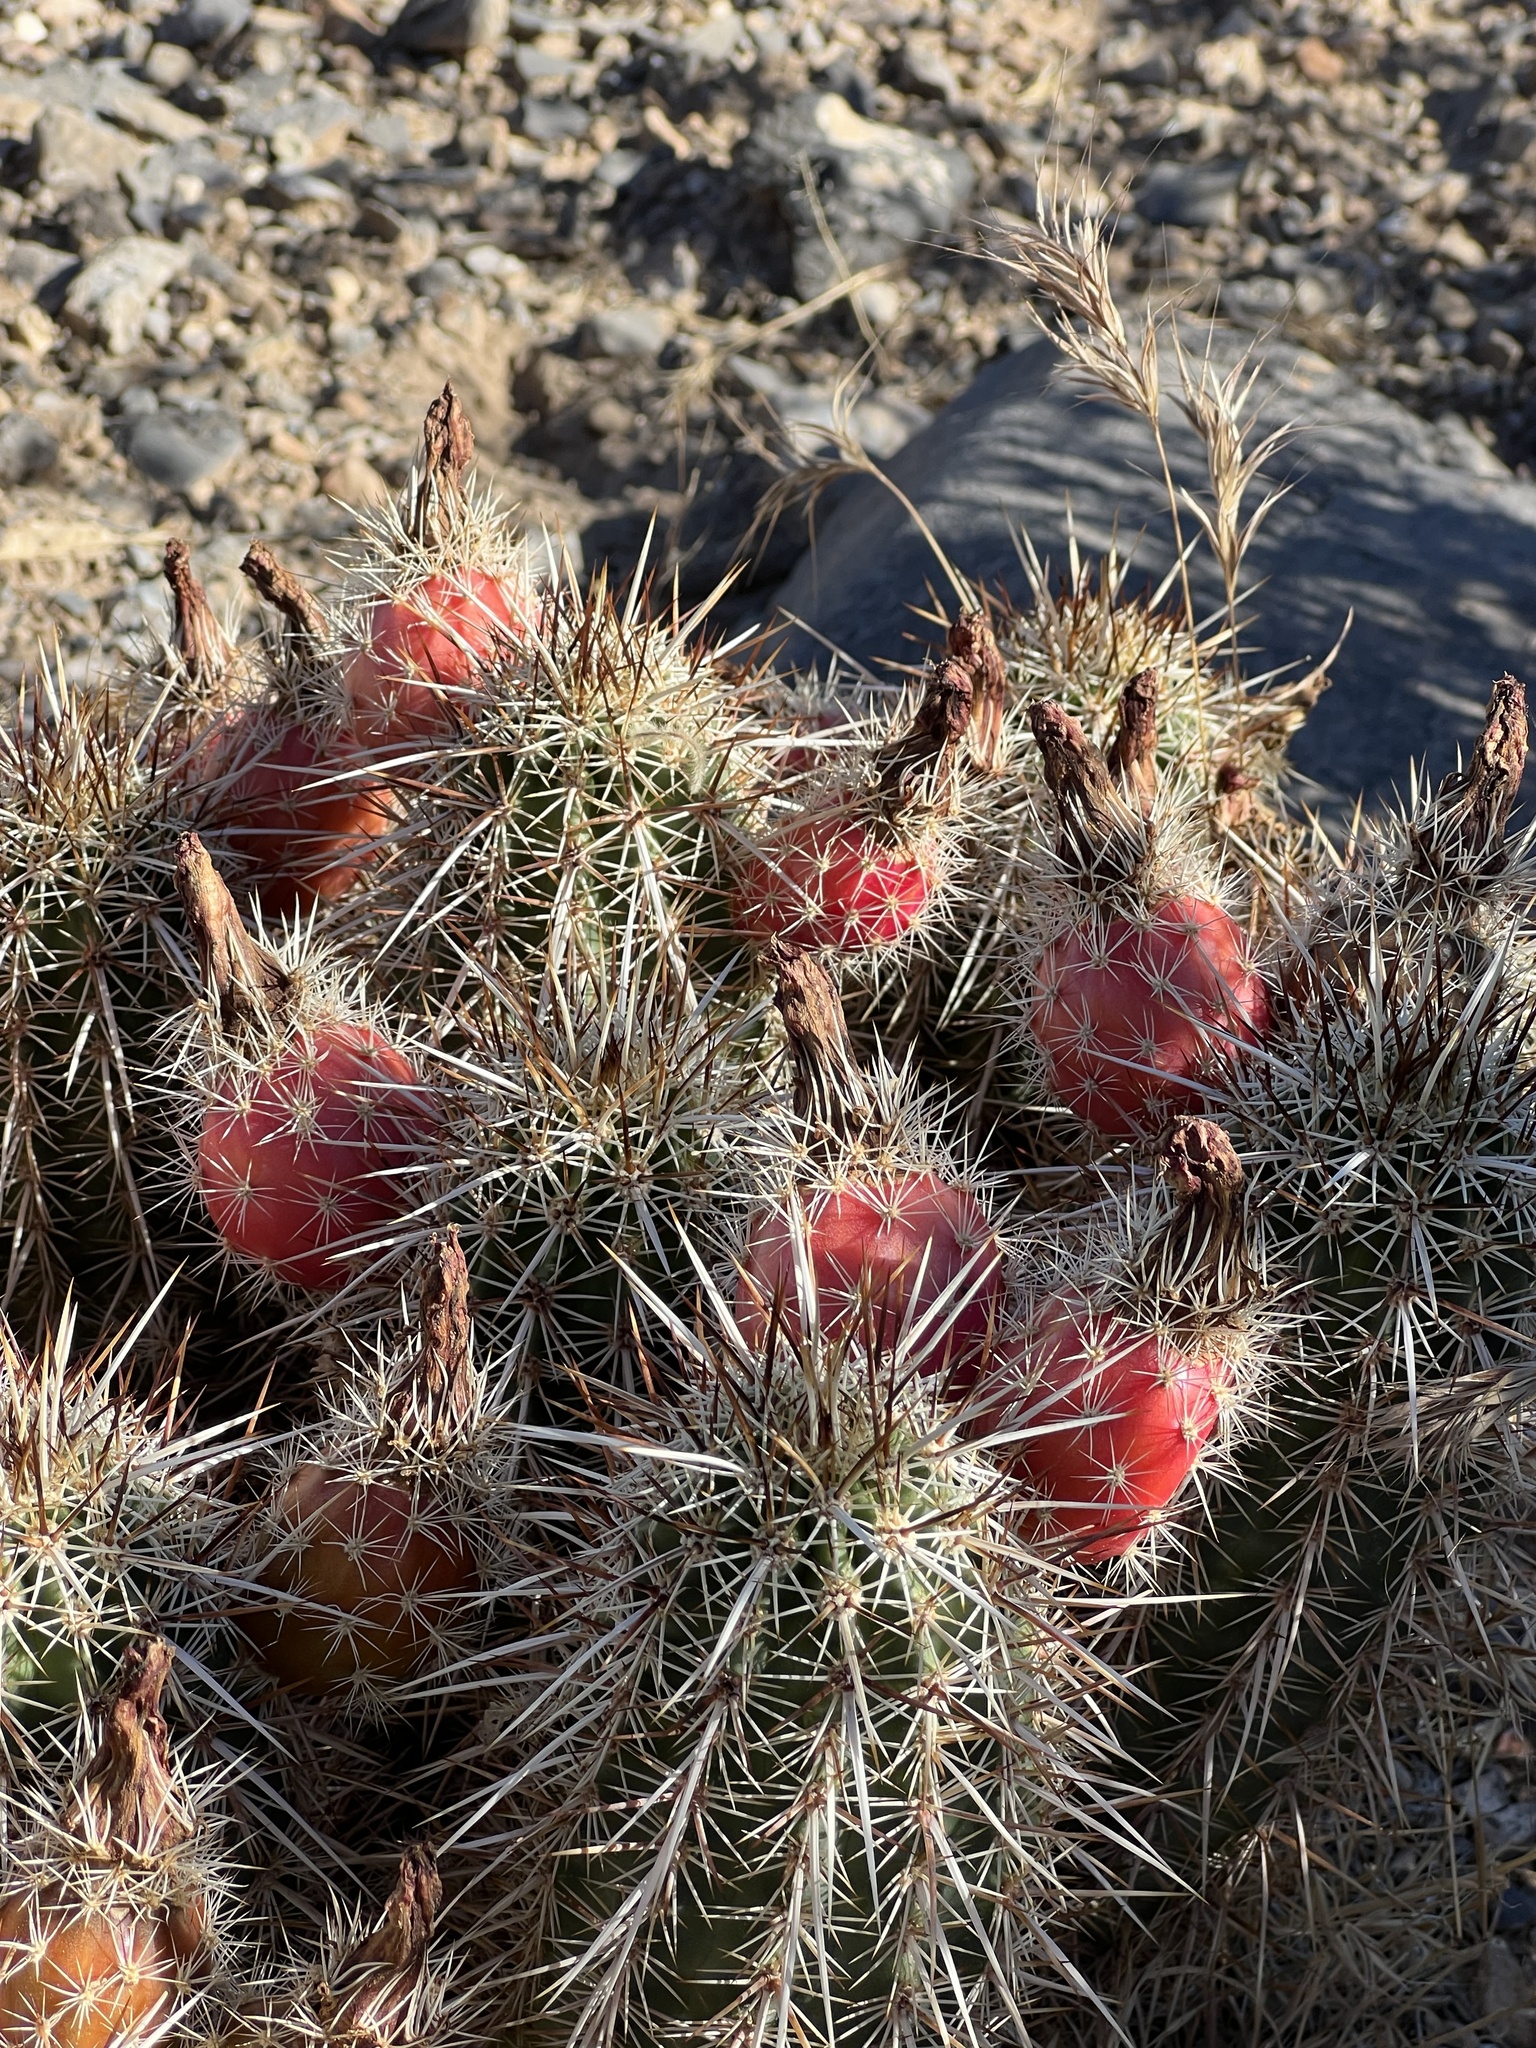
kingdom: Plantae
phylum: Tracheophyta
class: Magnoliopsida
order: Caryophyllales
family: Cactaceae
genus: Echinocereus
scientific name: Echinocereus engelmannii
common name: Engelmann's hedgehog cactus
